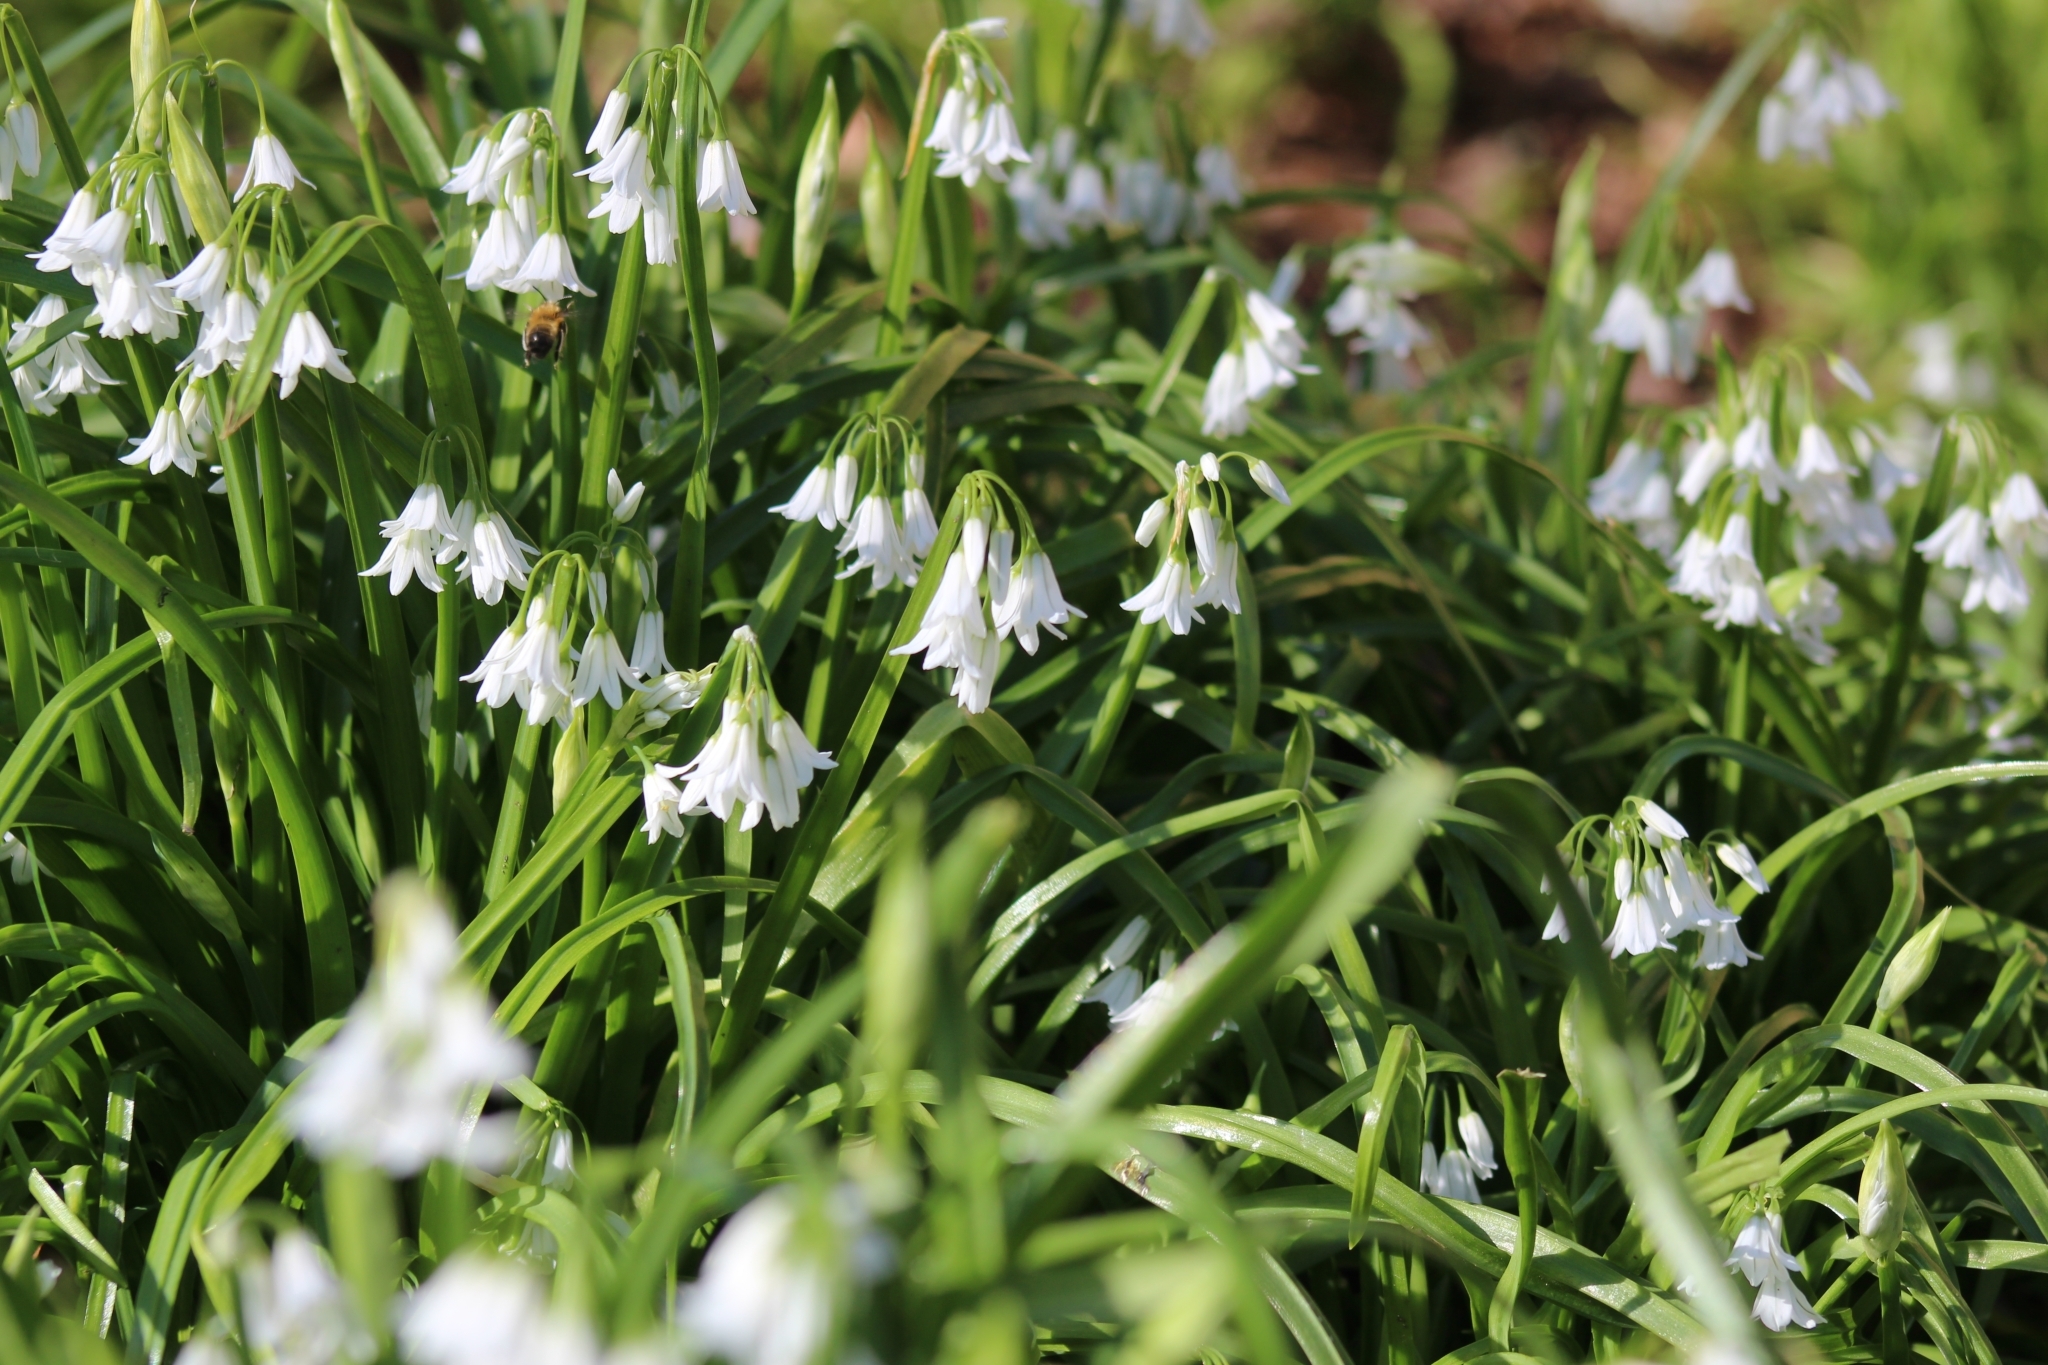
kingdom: Plantae
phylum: Tracheophyta
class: Liliopsida
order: Asparagales
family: Amaryllidaceae
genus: Allium
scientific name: Allium triquetrum
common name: Three-cornered garlic
